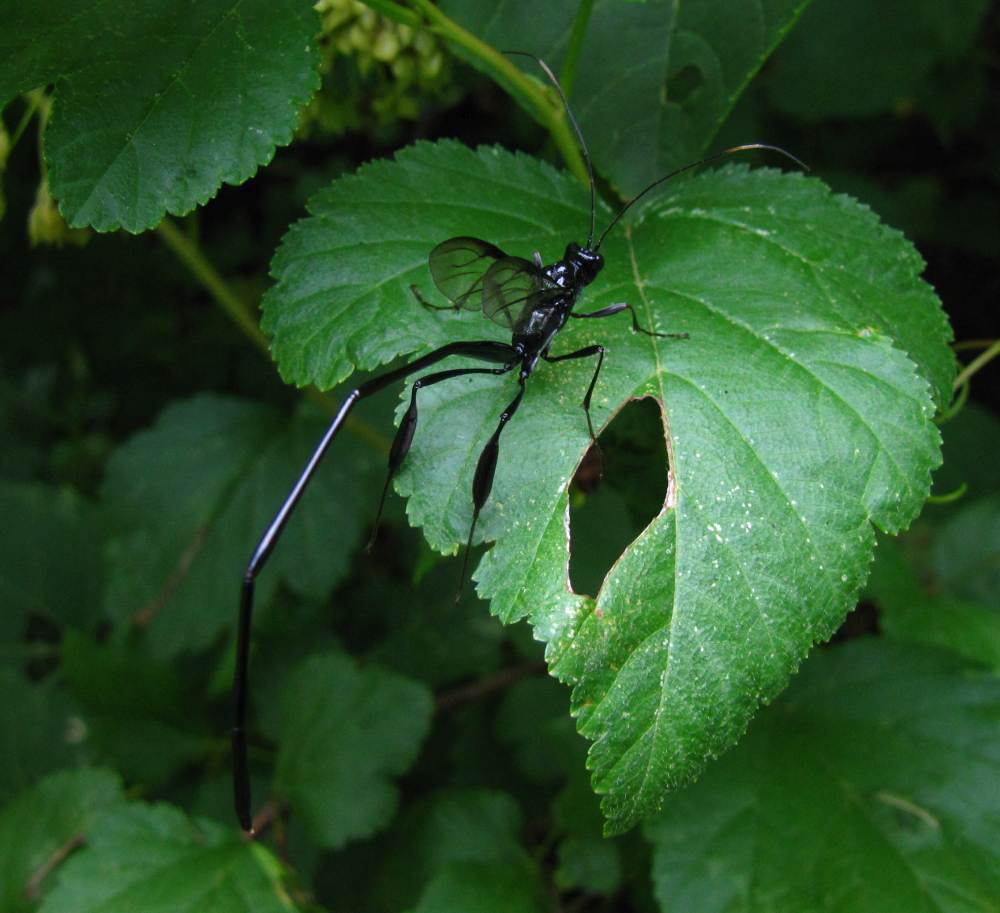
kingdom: Animalia
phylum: Arthropoda
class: Insecta
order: Hymenoptera
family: Pelecinidae
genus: Pelecinus
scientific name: Pelecinus polyturator
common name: American pelecinid wasp
